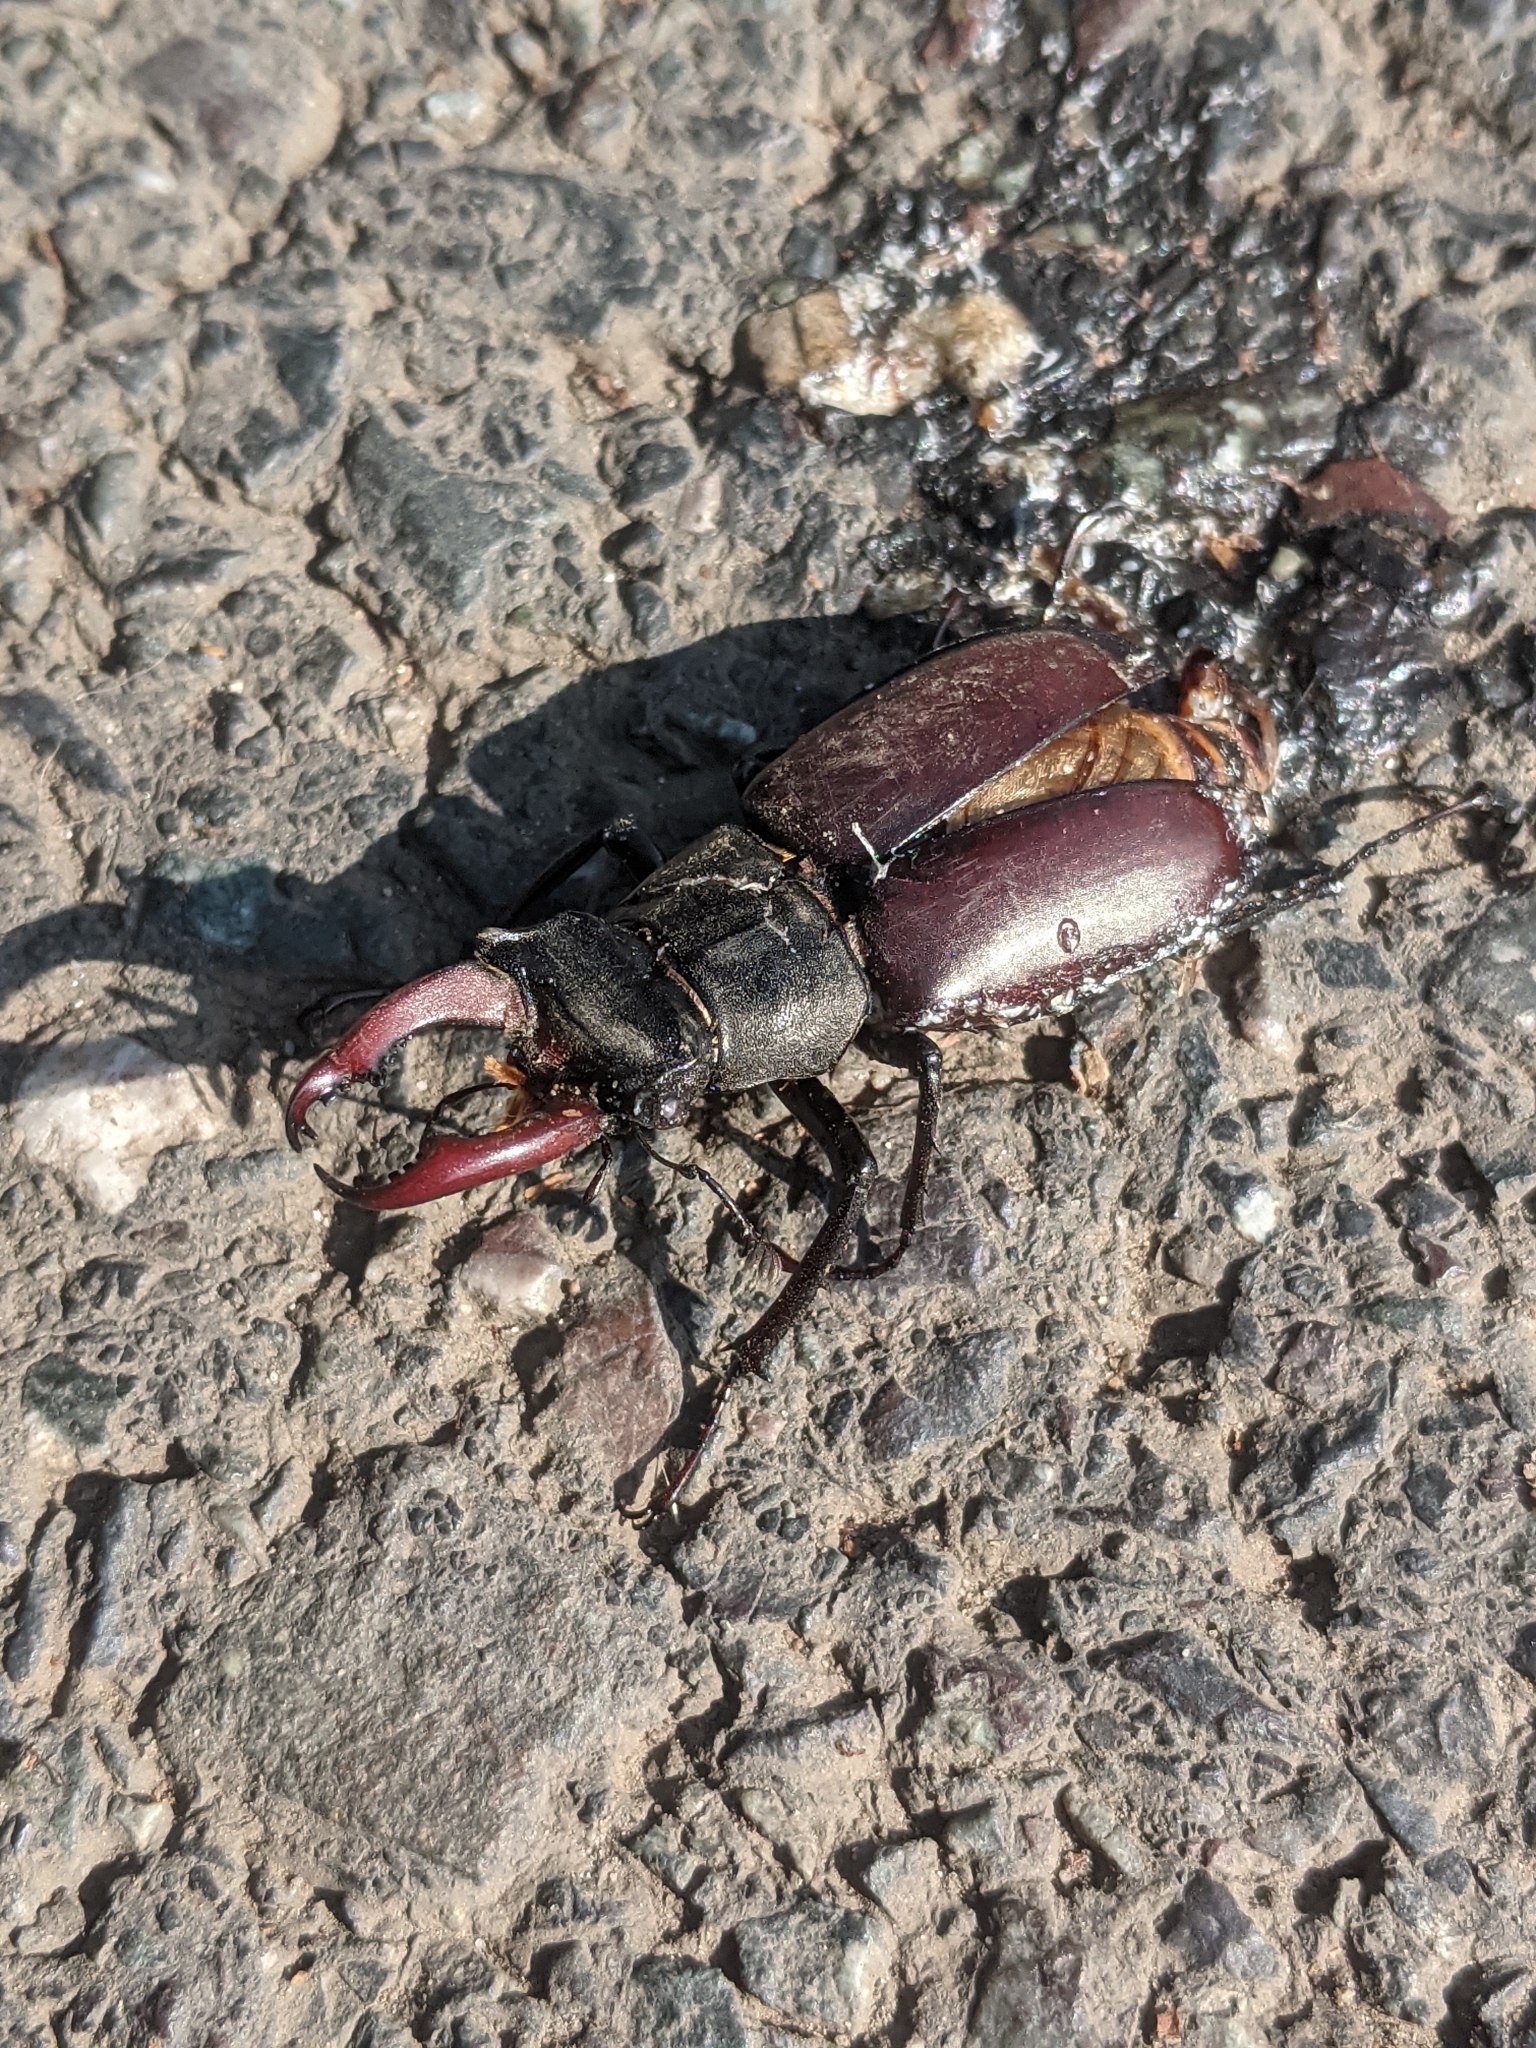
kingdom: Animalia
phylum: Arthropoda
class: Insecta
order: Coleoptera
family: Lucanidae
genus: Lucanus
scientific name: Lucanus cervus
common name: Stag beetle
